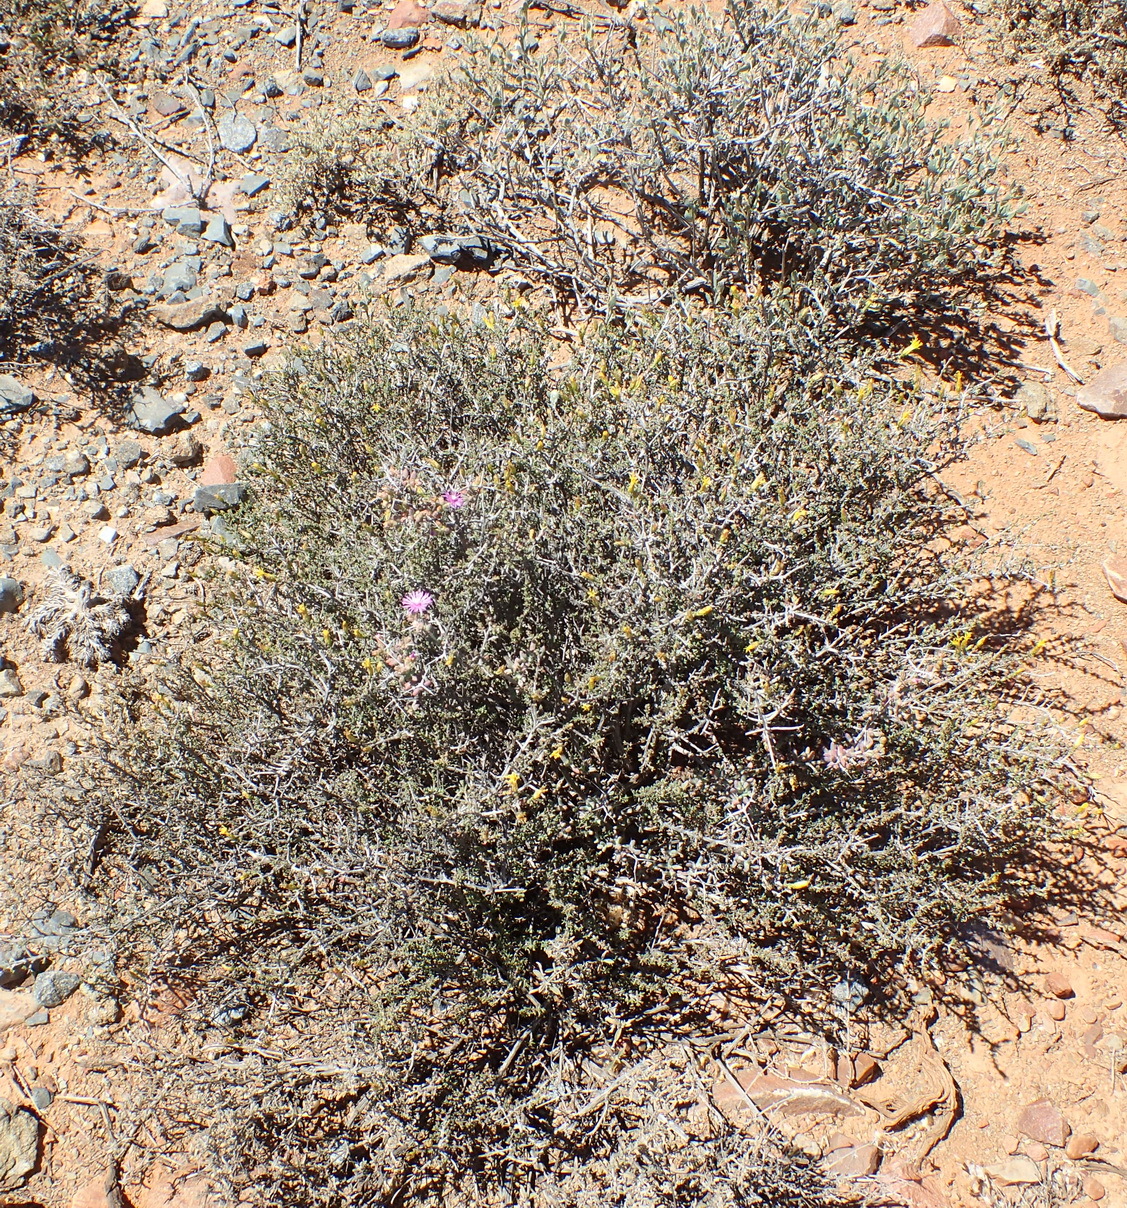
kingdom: Plantae
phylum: Tracheophyta
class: Magnoliopsida
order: Asterales
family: Asteraceae
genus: Pteronia
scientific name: Pteronia glauca
